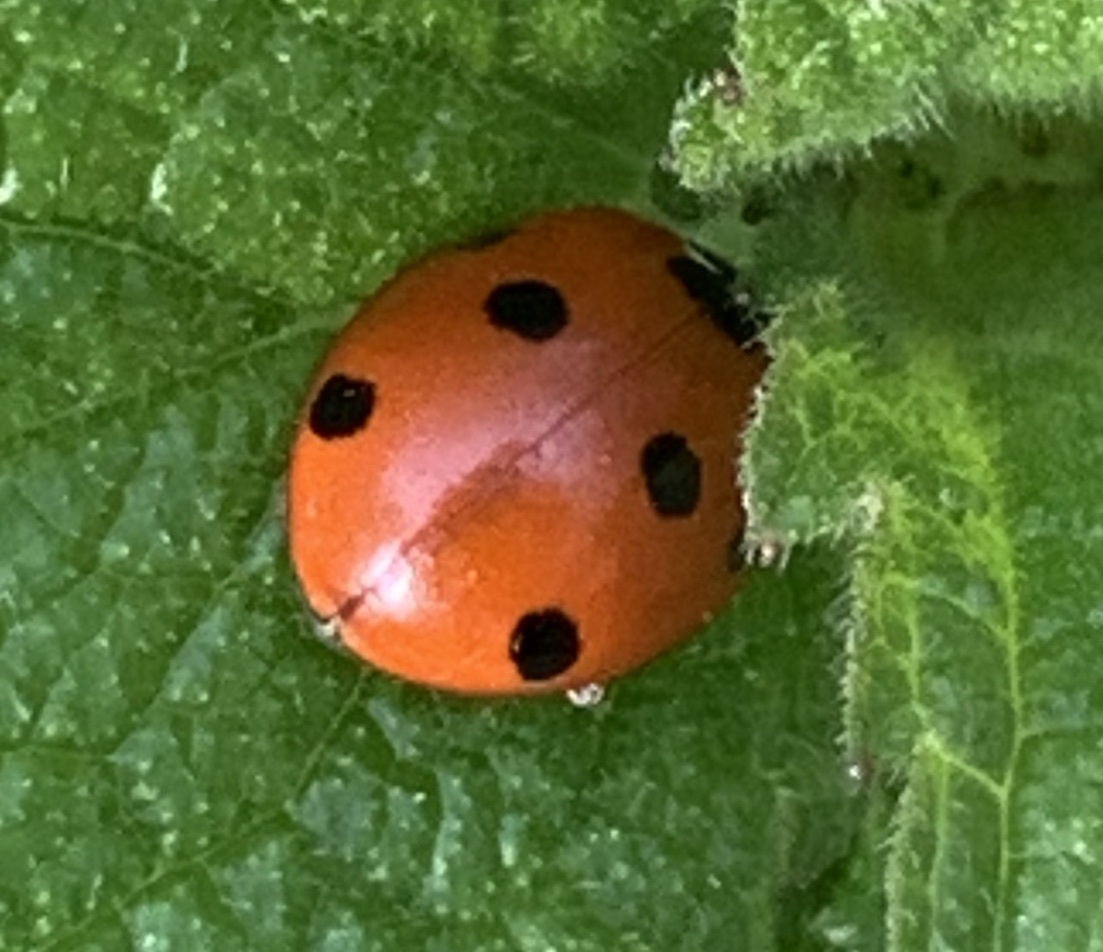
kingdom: Animalia
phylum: Arthropoda
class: Insecta
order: Coleoptera
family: Coccinellidae
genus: Coccinella
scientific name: Coccinella septempunctata
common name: Sevenspotted lady beetle
